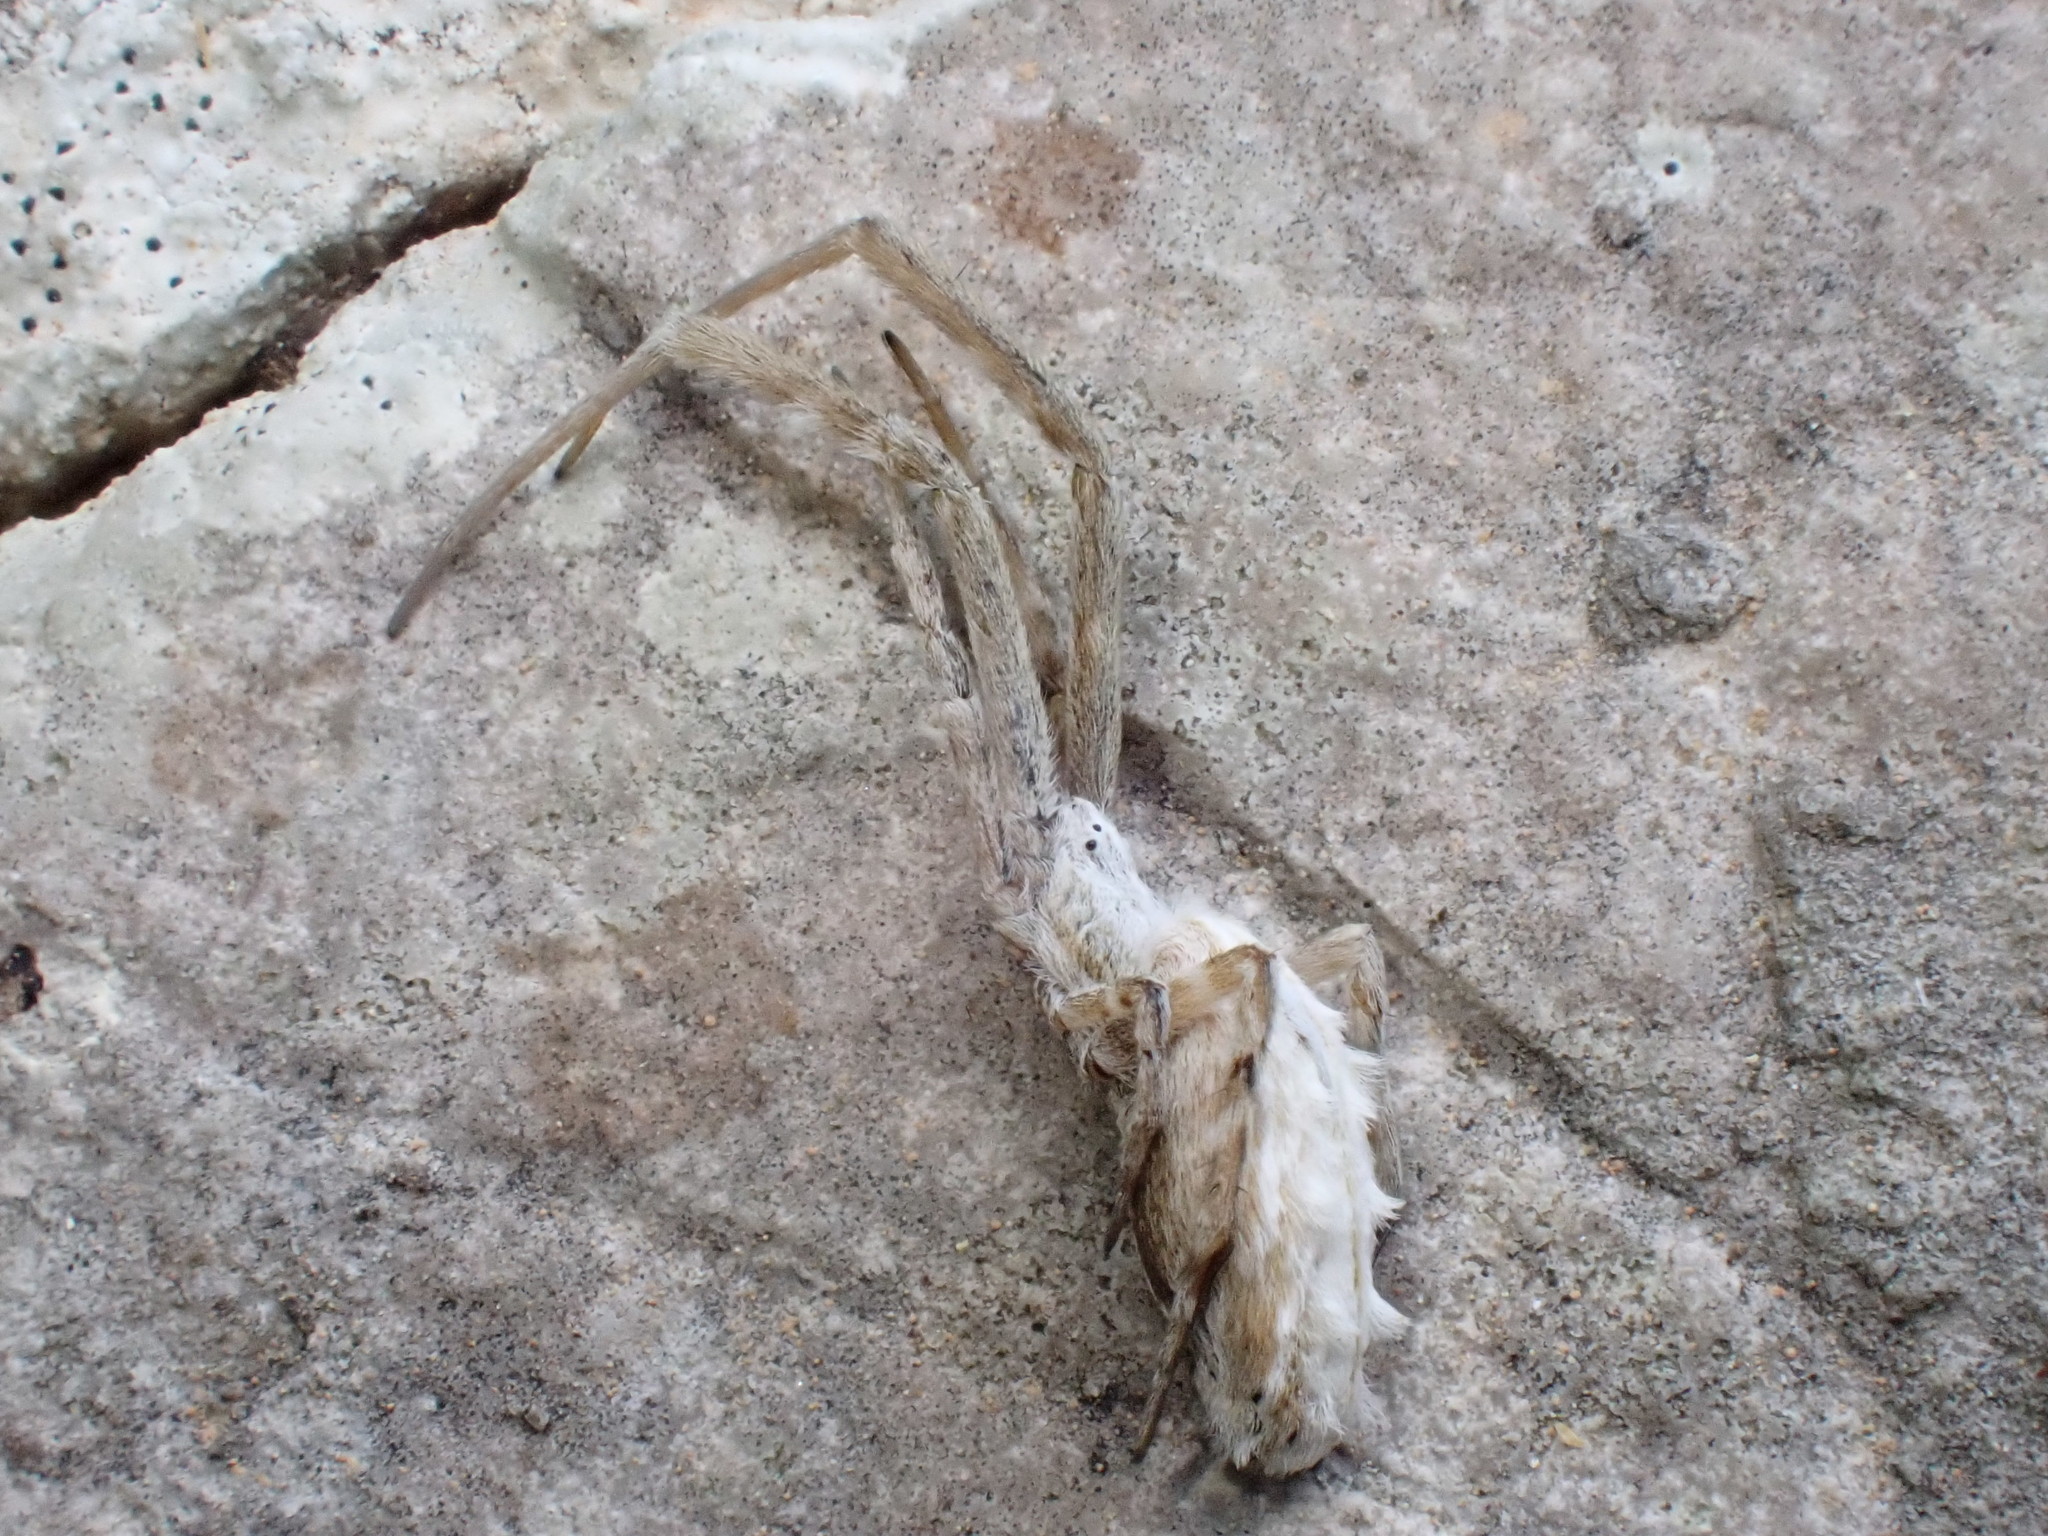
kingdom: Animalia
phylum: Arthropoda
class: Arachnida
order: Araneae
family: Uloboridae
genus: Uloborus
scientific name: Uloborus walckenaerius
